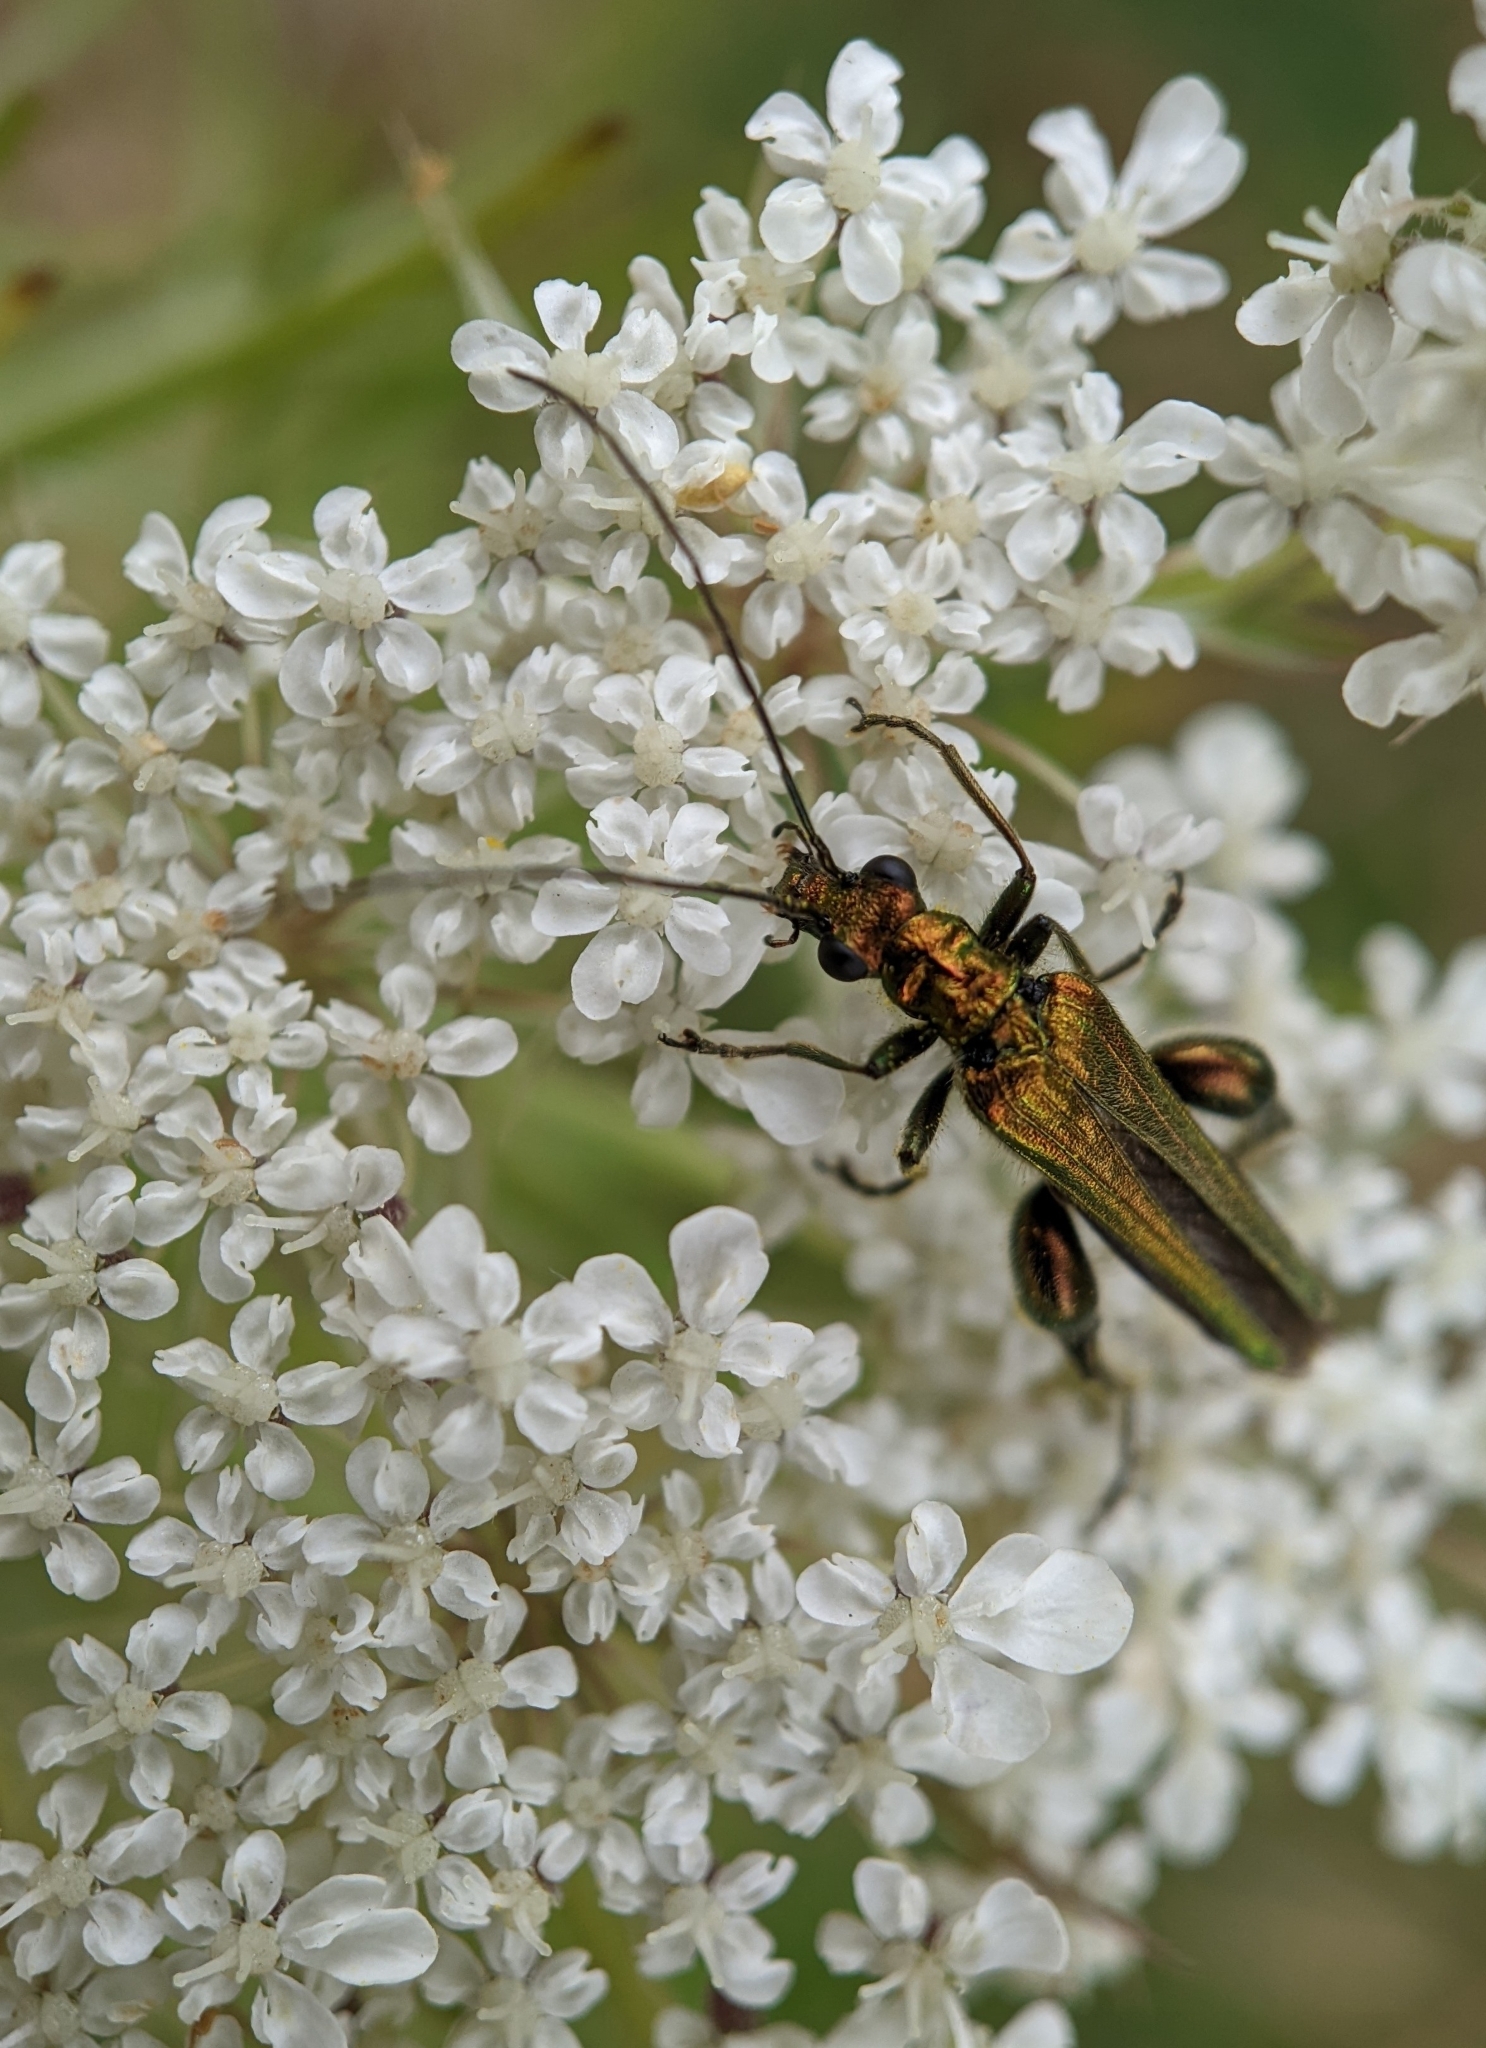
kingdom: Animalia
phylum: Arthropoda
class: Insecta
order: Coleoptera
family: Oedemeridae
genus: Oedemera
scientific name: Oedemera nobilis
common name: Swollen-thighed beetle
